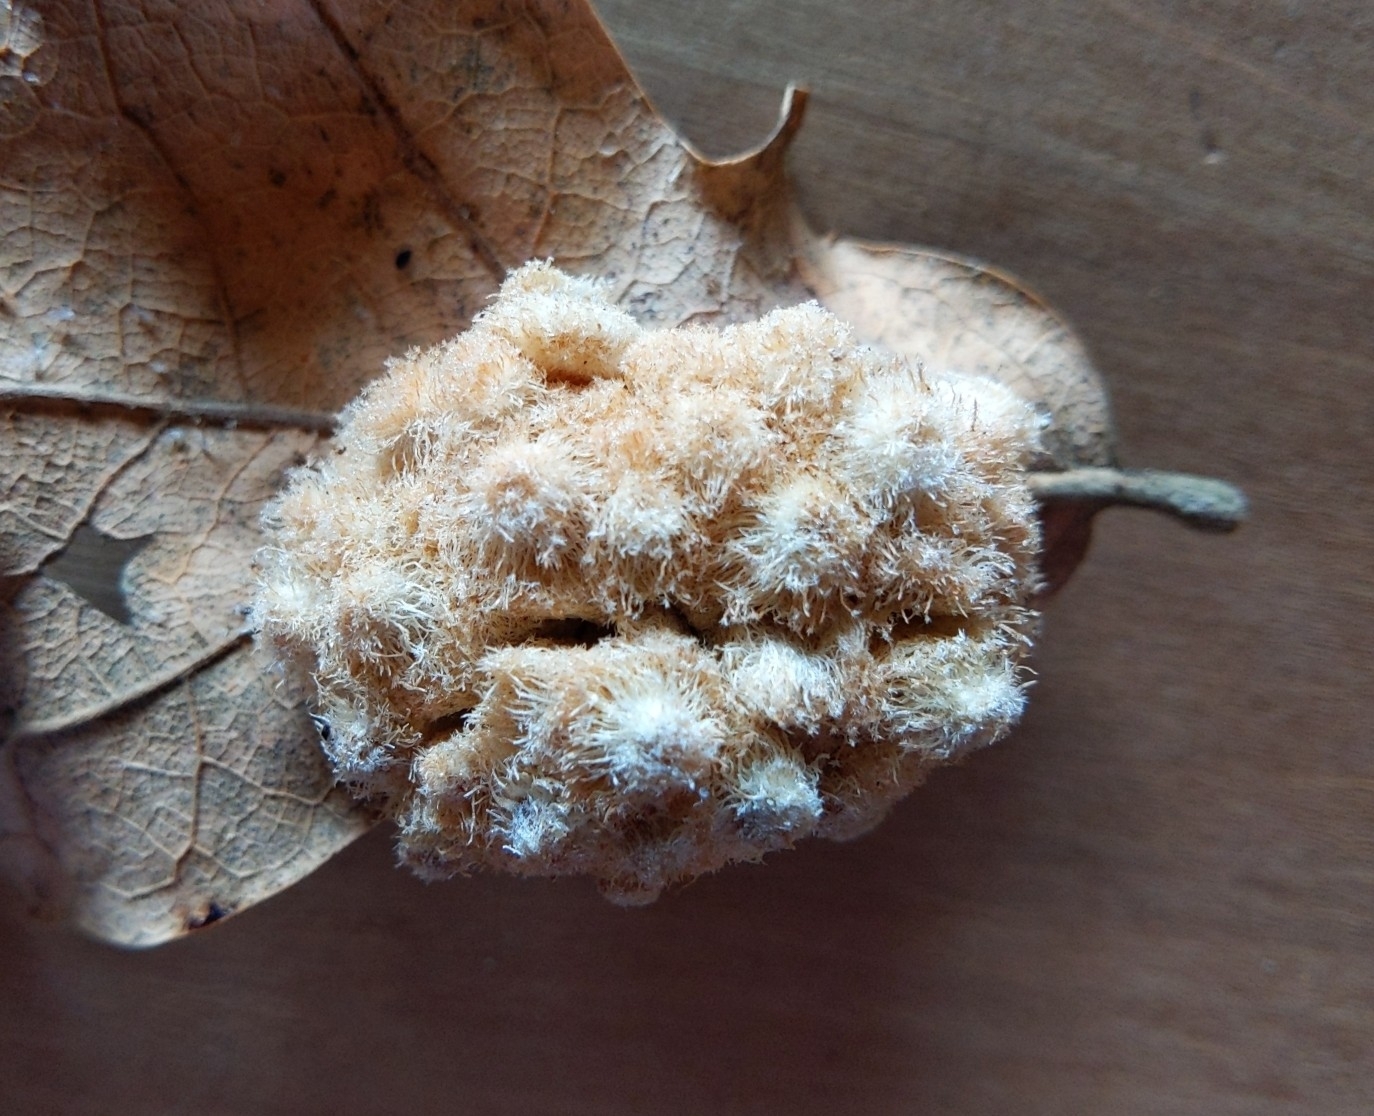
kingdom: Animalia
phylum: Arthropoda
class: Insecta
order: Hymenoptera
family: Cynipidae
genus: Andricus
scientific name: Andricus
